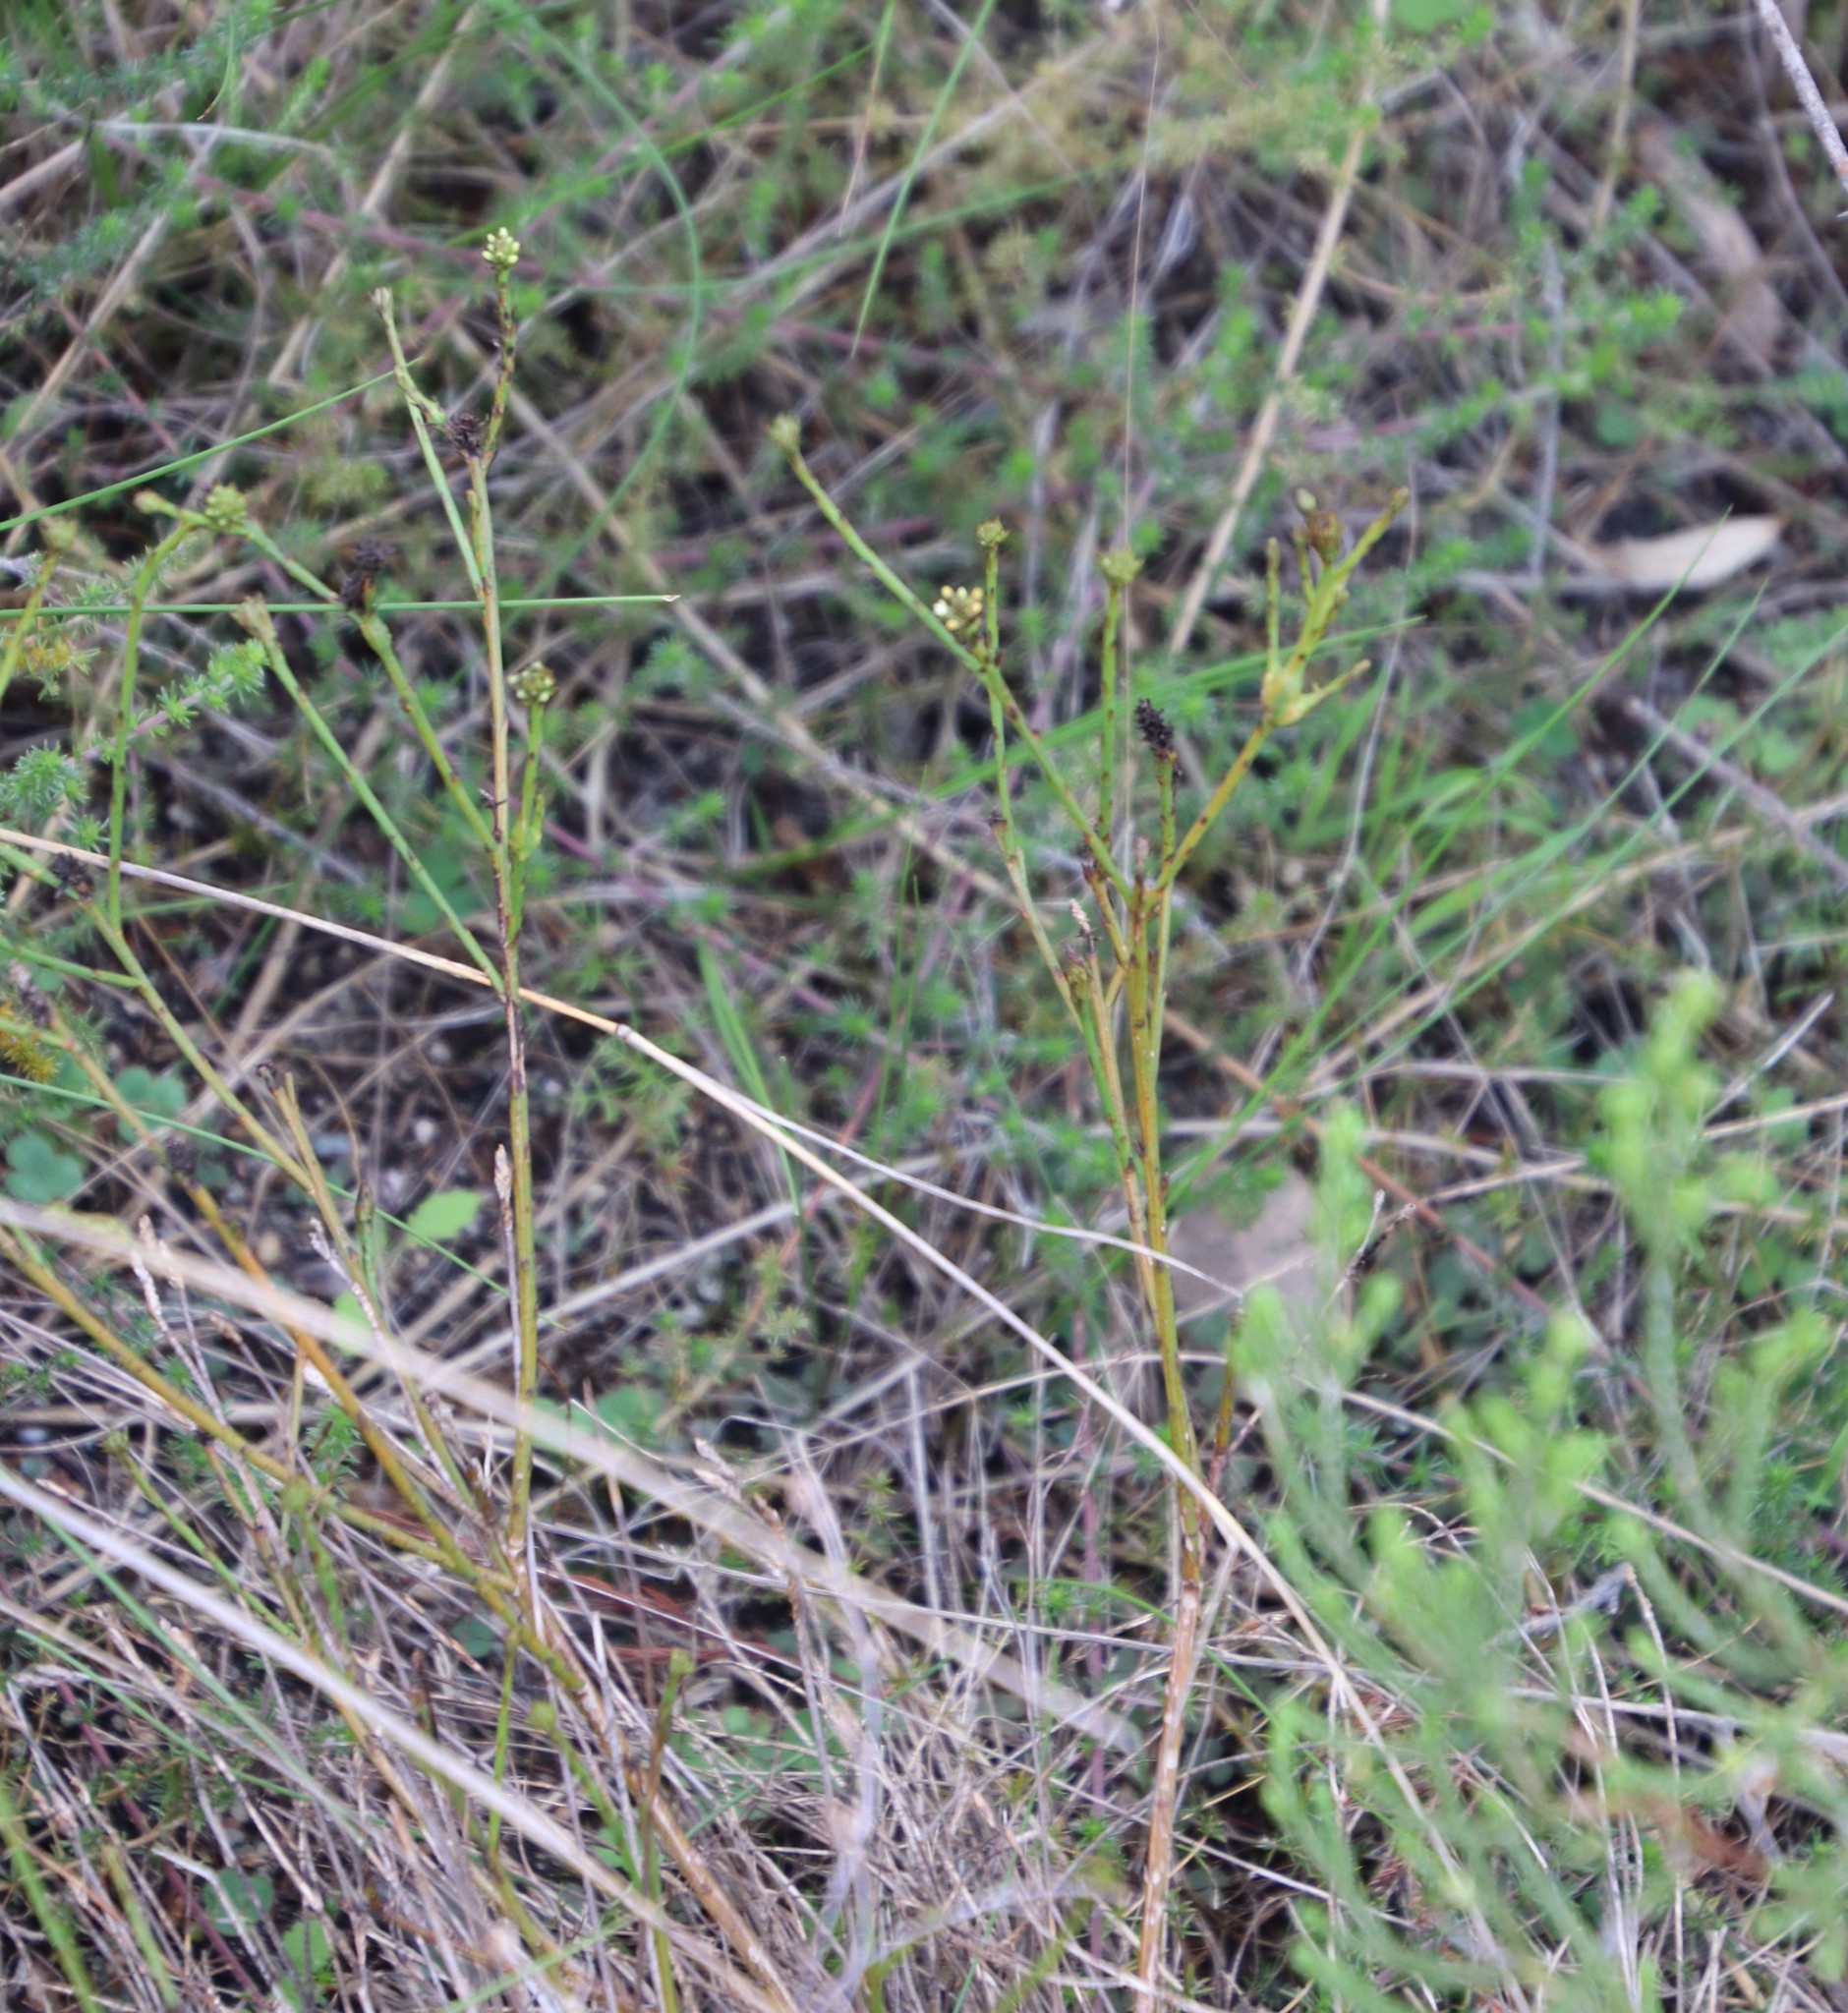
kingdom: Plantae
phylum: Tracheophyta
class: Magnoliopsida
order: Santalales
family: Thesiaceae
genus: Thesium
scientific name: Thesium aggregatum
